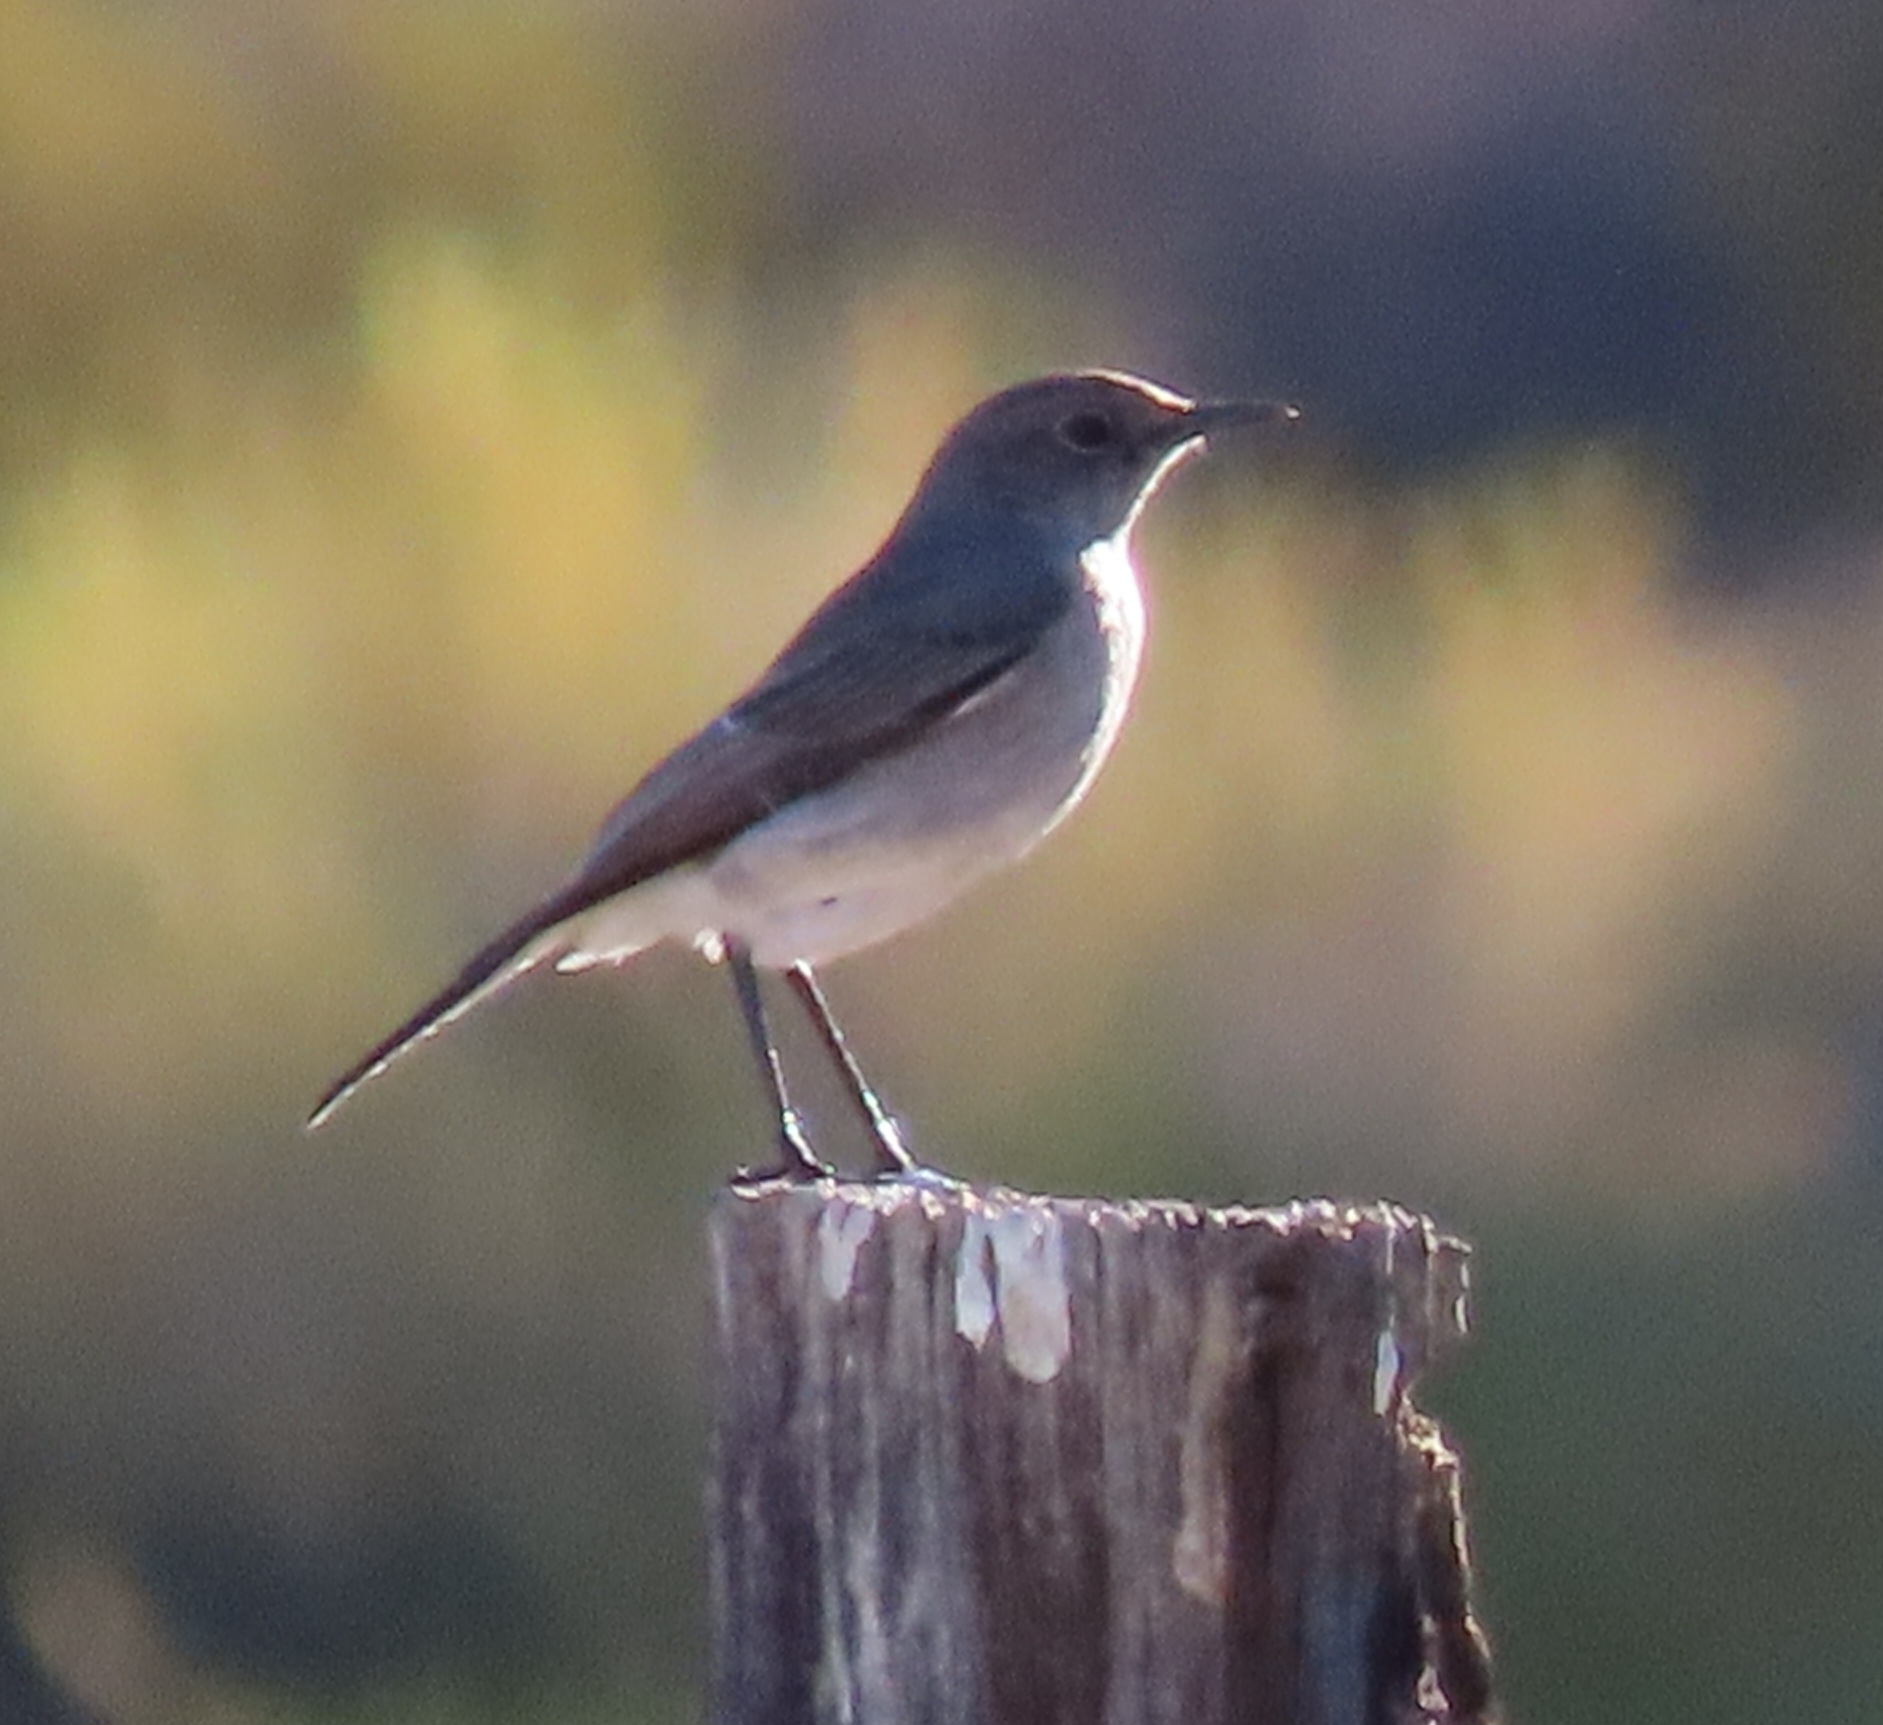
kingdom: Animalia
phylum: Chordata
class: Aves
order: Passeriformes
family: Muscicapidae
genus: Emarginata
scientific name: Emarginata schlegelii
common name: Karoo chat
